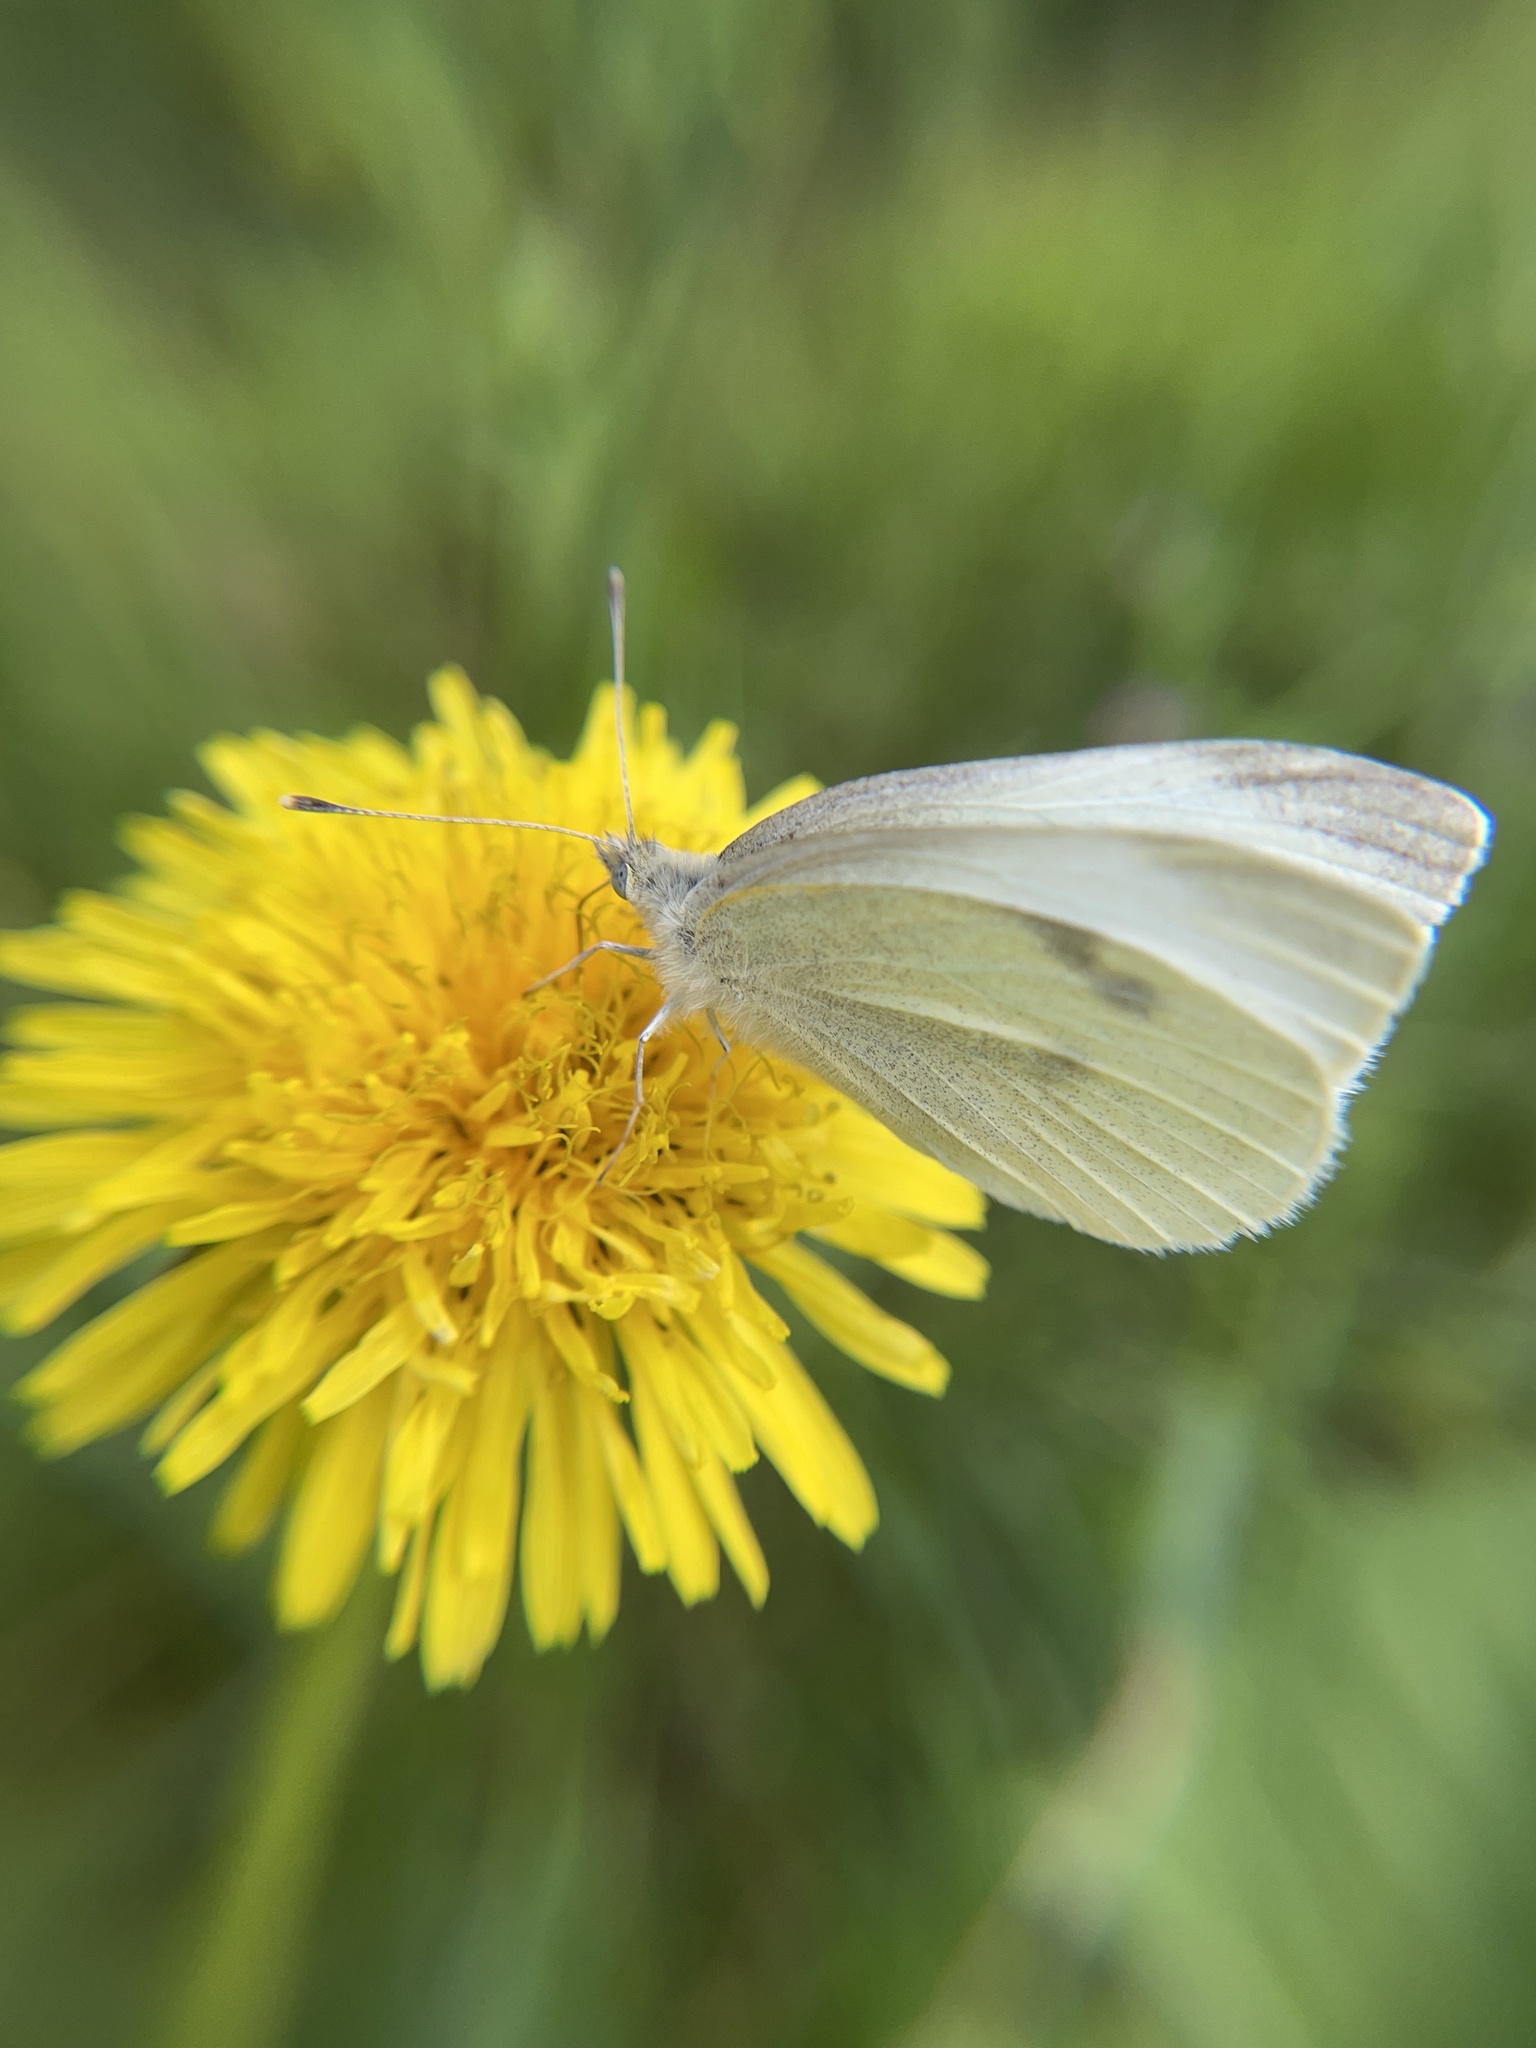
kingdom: Animalia
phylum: Arthropoda
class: Insecta
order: Lepidoptera
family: Pieridae
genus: Pieris
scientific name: Pieris rapae
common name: Small white
